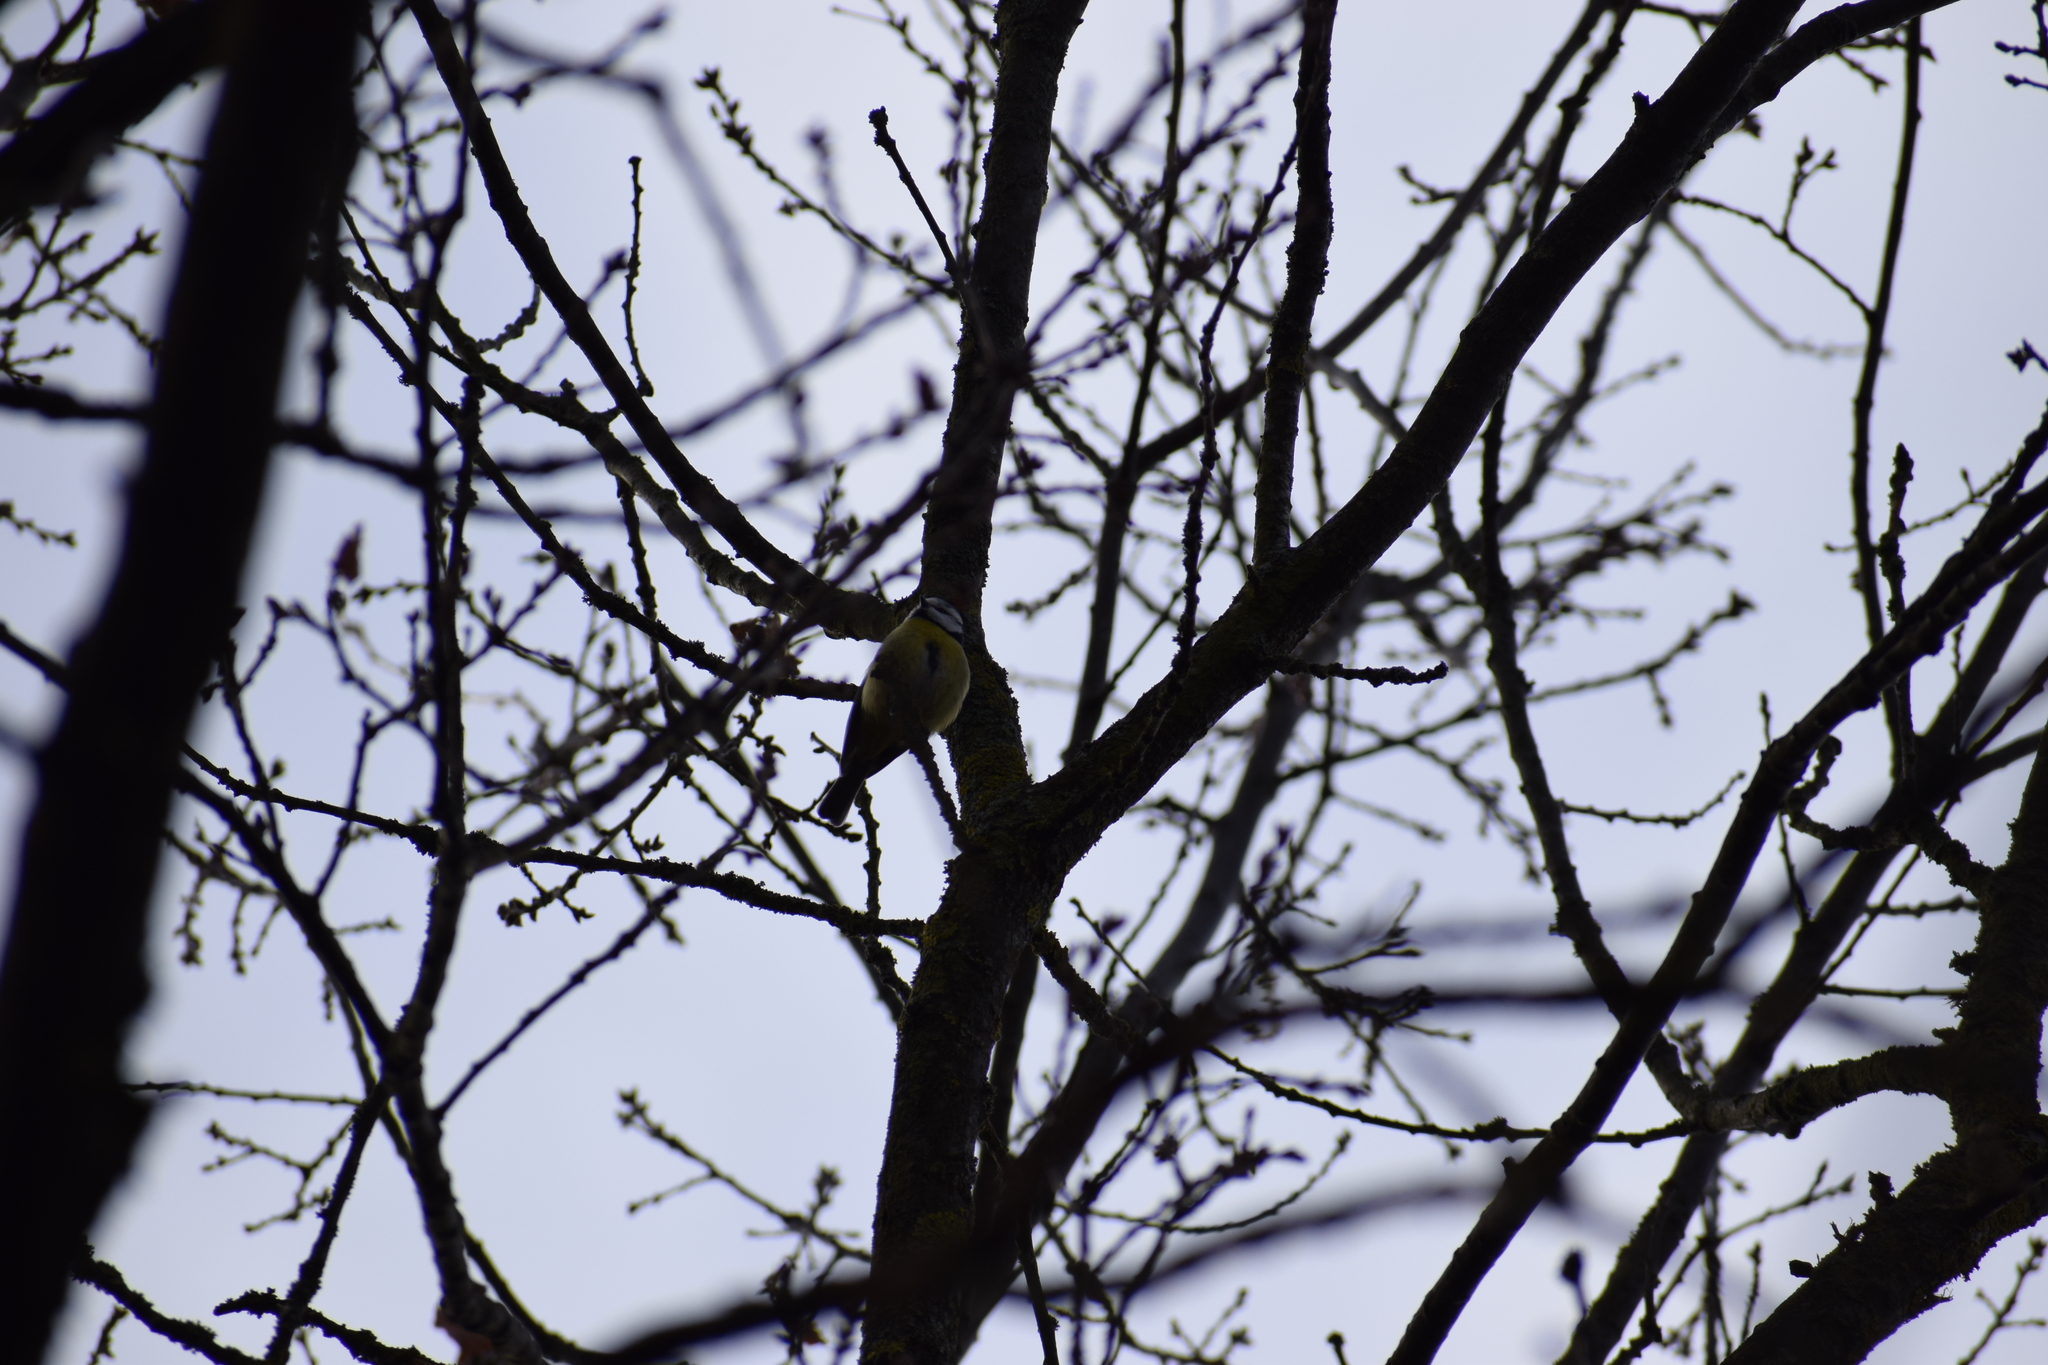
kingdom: Animalia
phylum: Chordata
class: Aves
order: Passeriformes
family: Paridae
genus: Cyanistes
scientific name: Cyanistes caeruleus
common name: Eurasian blue tit
